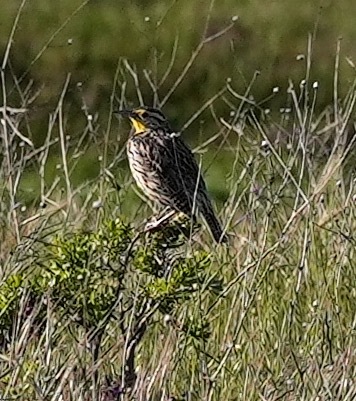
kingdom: Animalia
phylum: Chordata
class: Aves
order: Passeriformes
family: Icteridae
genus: Sturnella
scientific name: Sturnella neglecta
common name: Western meadowlark
